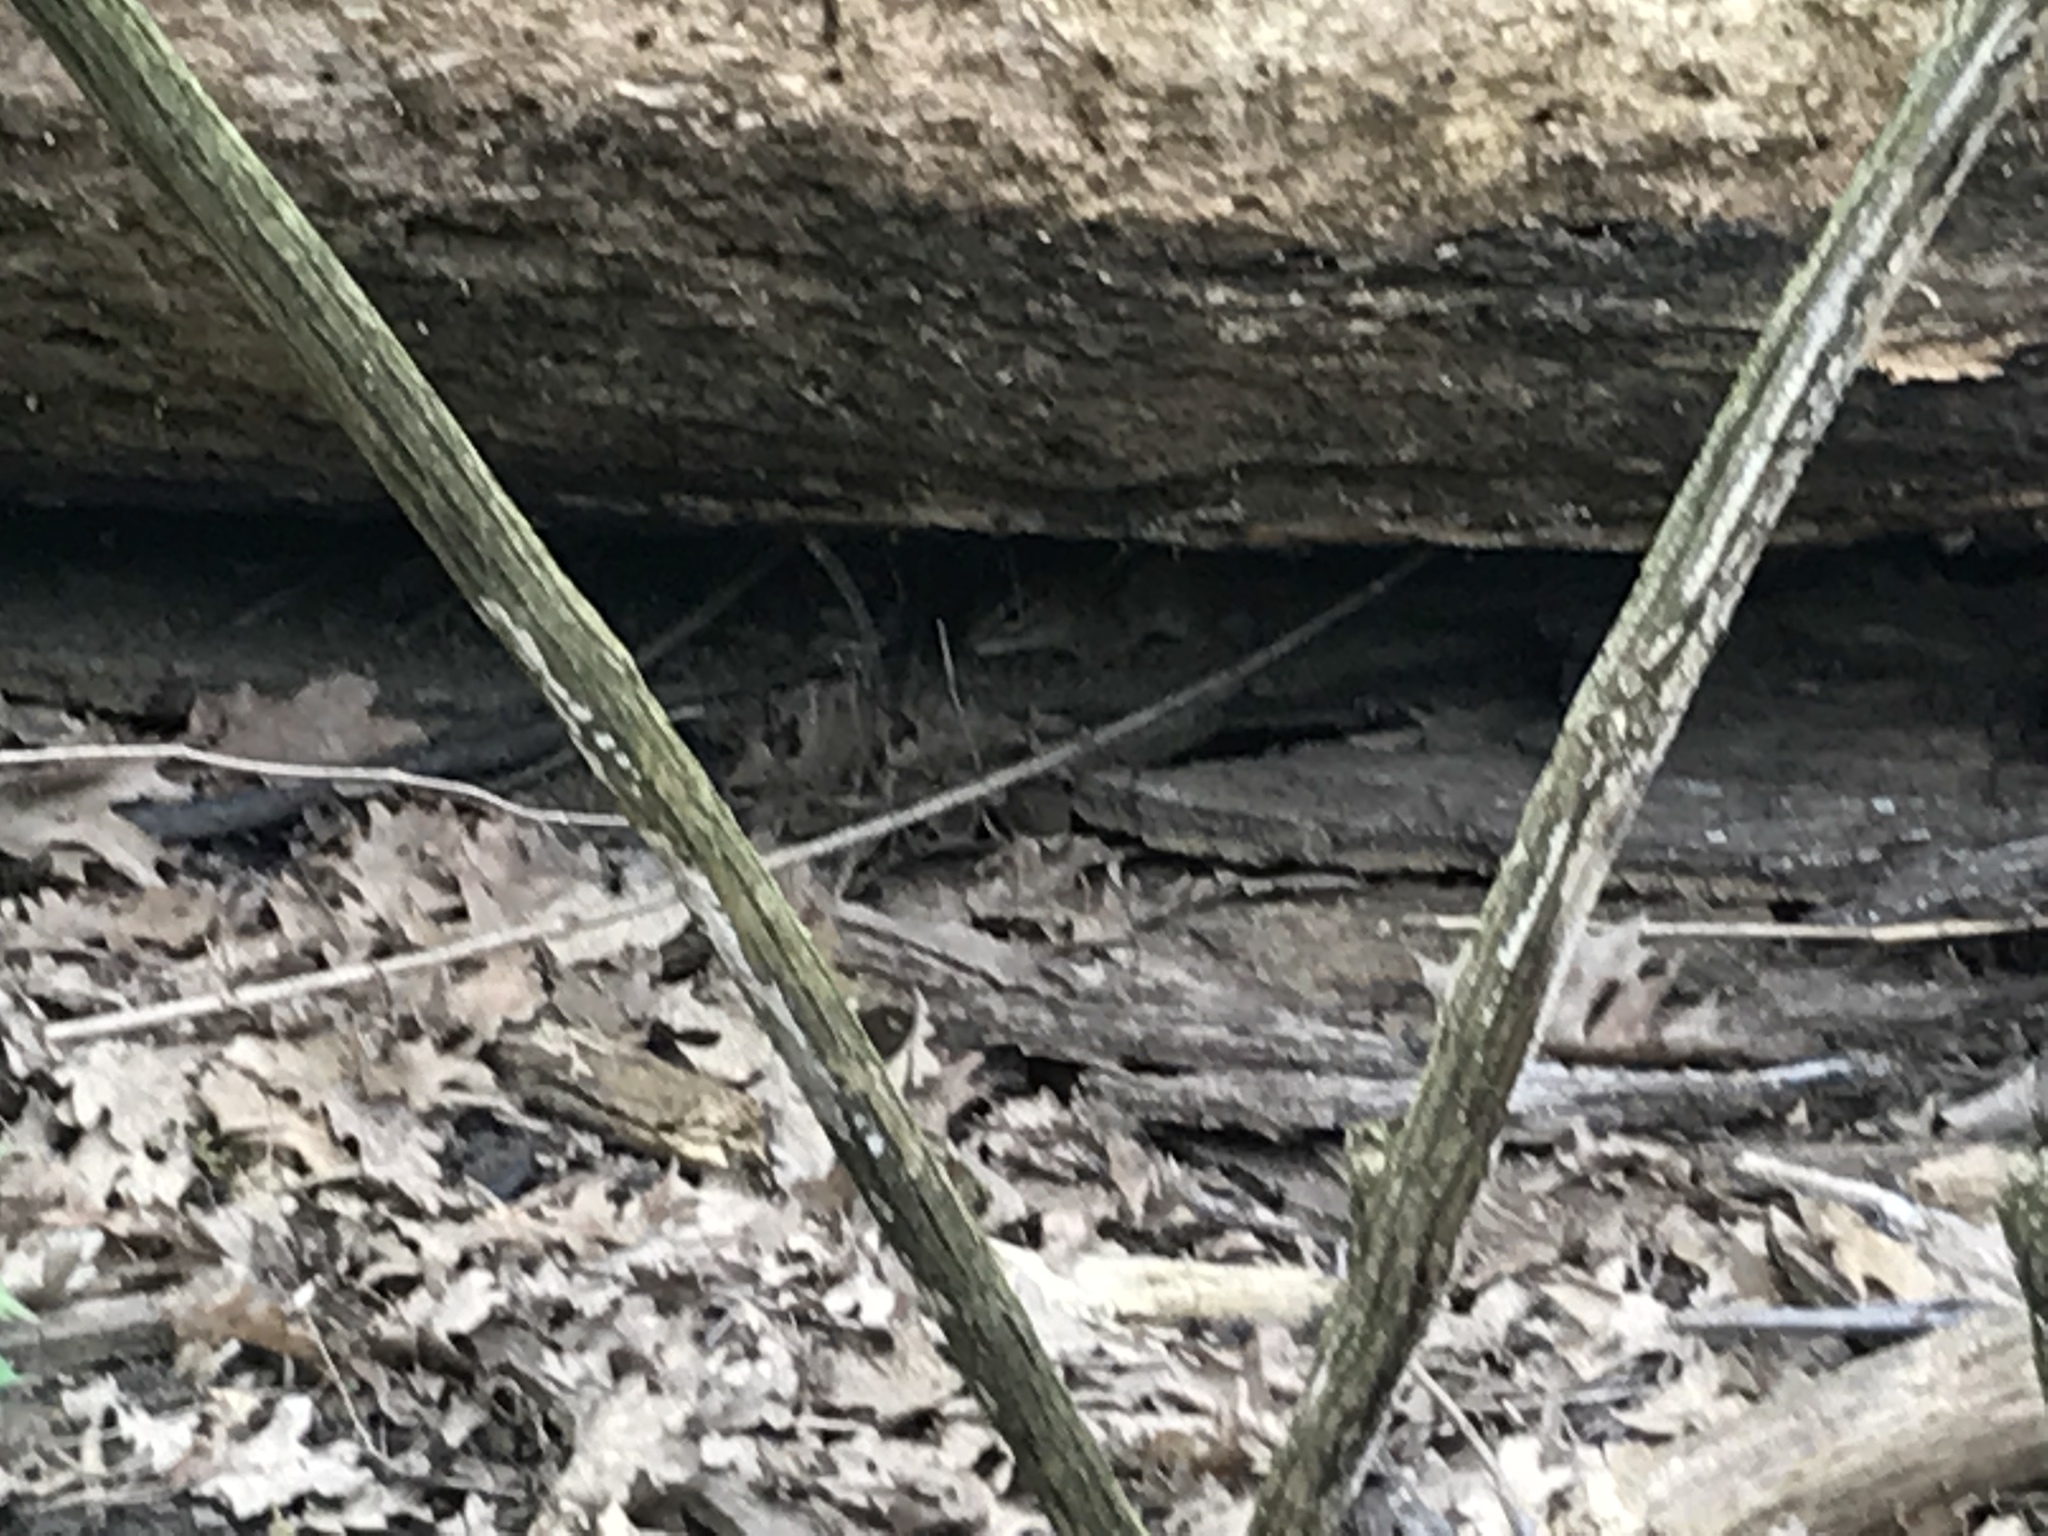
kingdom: Animalia
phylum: Chordata
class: Mammalia
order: Rodentia
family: Sciuridae
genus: Tamias
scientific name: Tamias striatus
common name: Eastern chipmunk
